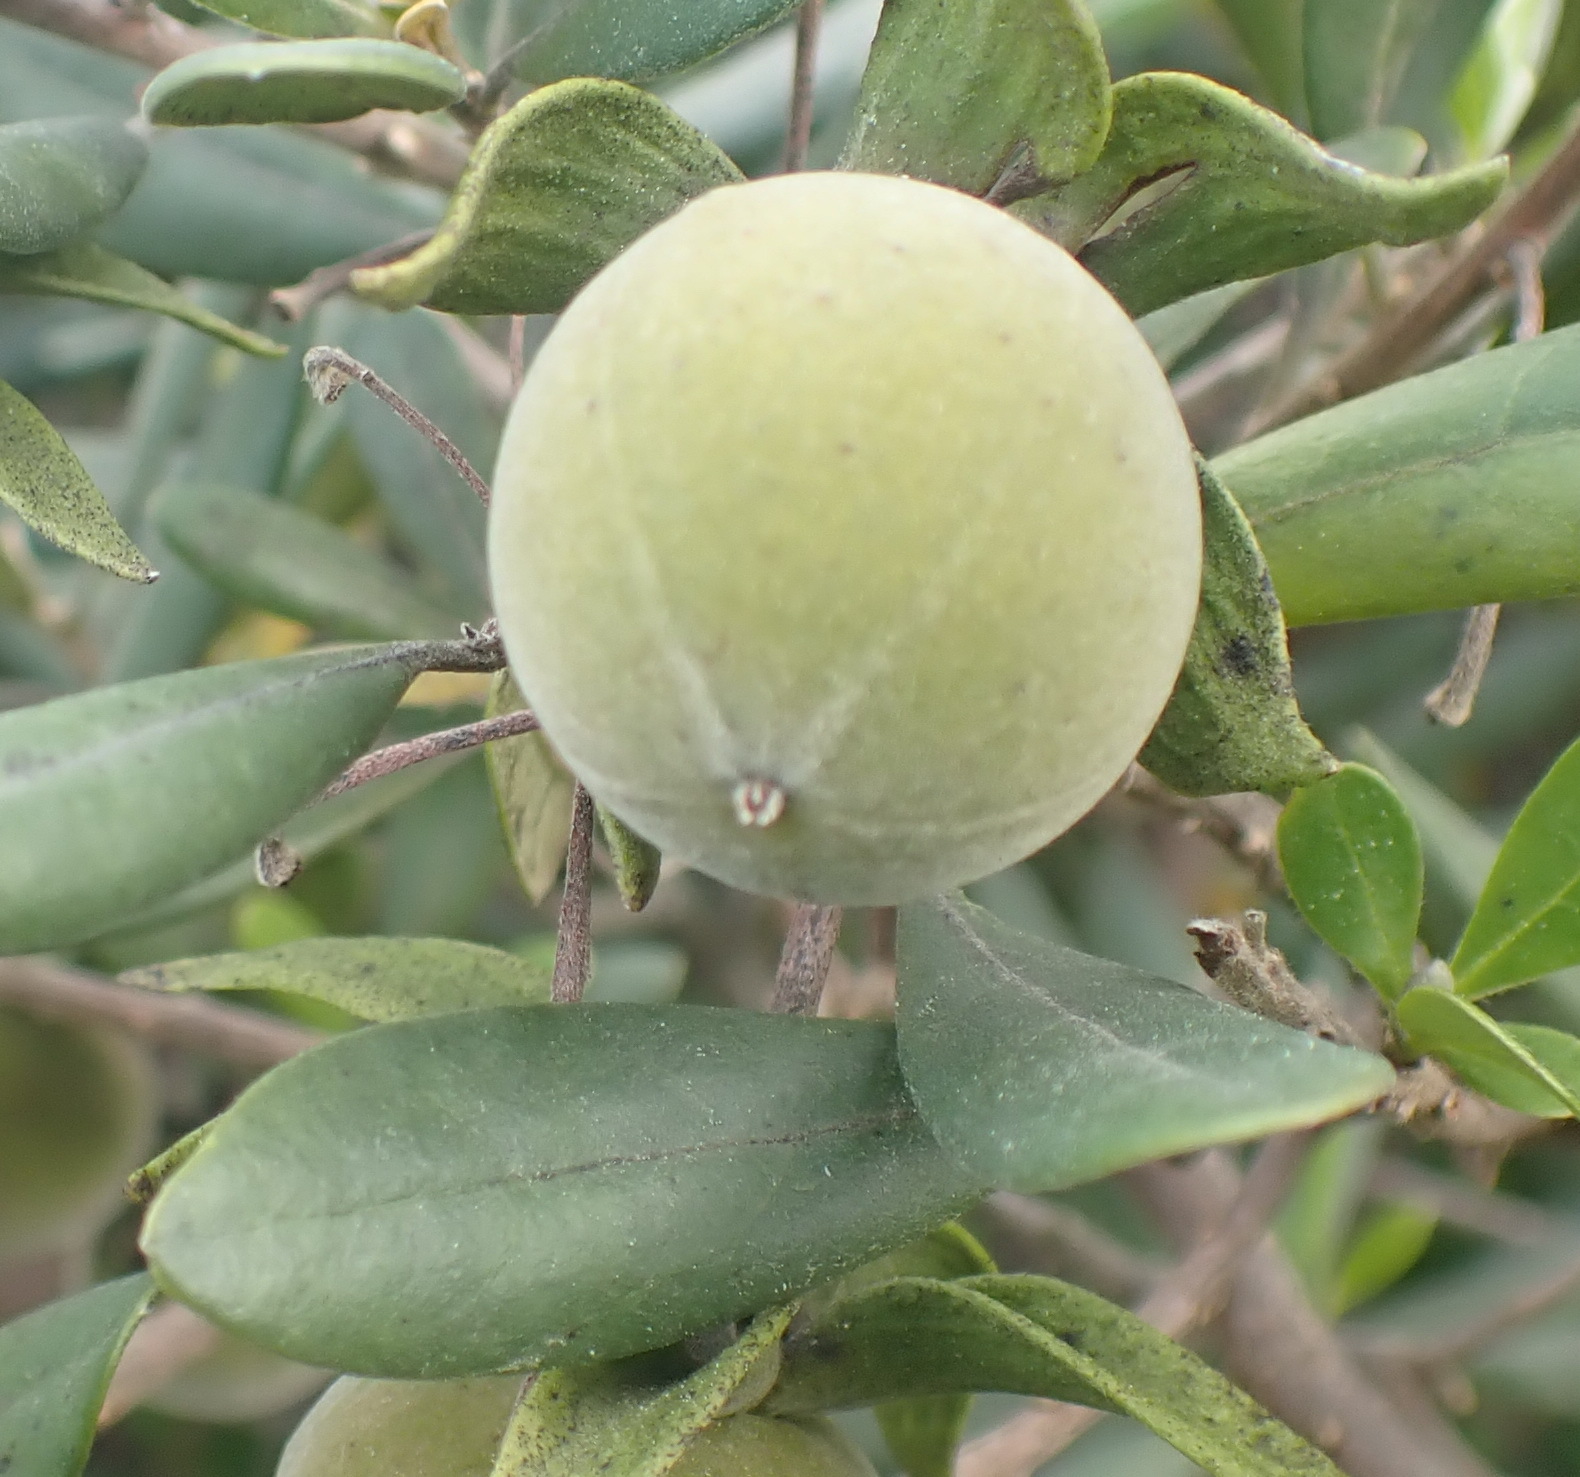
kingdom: Plantae
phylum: Tracheophyta
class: Magnoliopsida
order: Ericales
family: Ebenaceae
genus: Diospyros
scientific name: Diospyros dichrophylla
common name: Common star-apple
